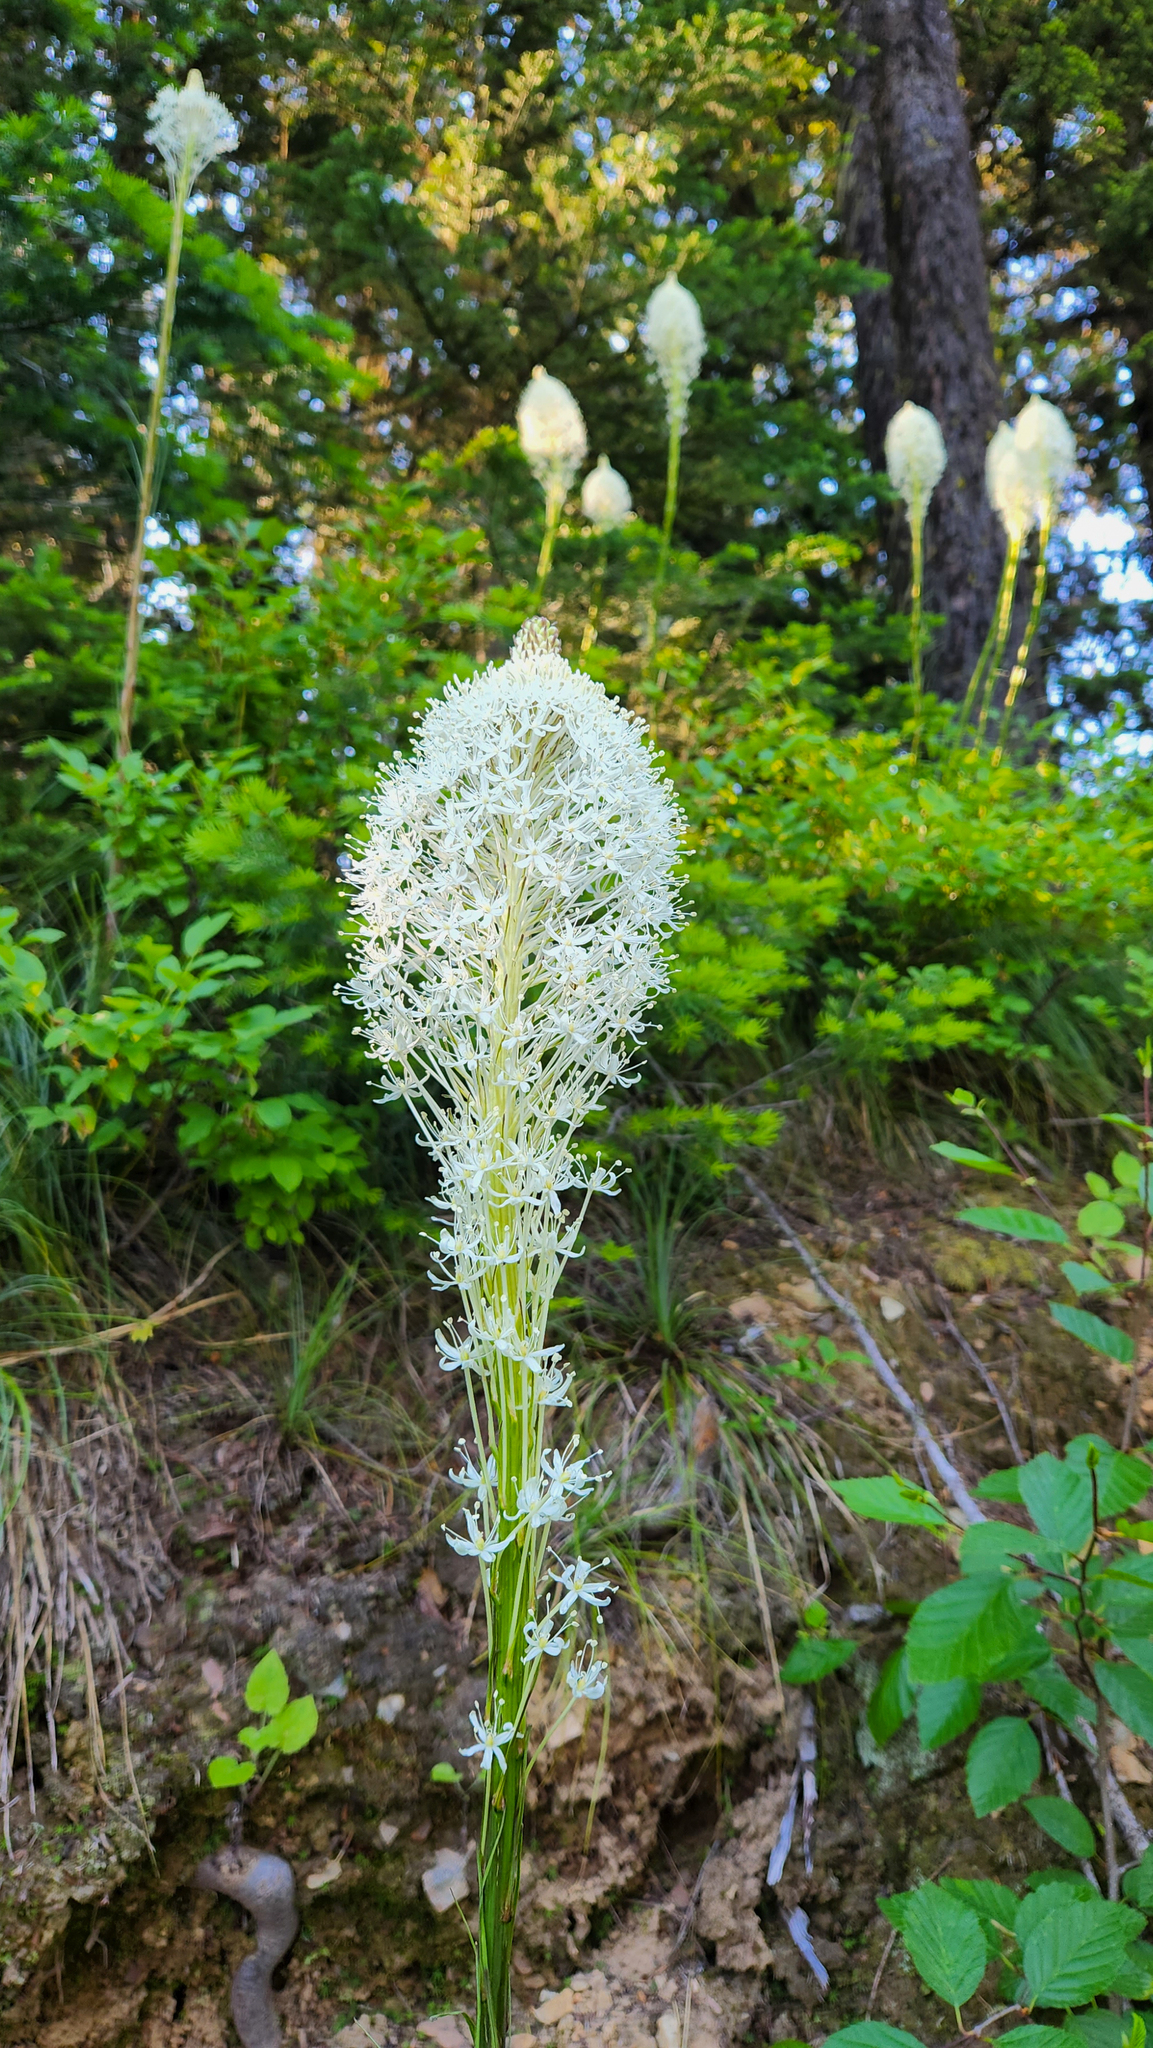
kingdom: Plantae
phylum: Tracheophyta
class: Liliopsida
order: Liliales
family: Melanthiaceae
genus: Xerophyllum
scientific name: Xerophyllum tenax
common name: Bear-grass
